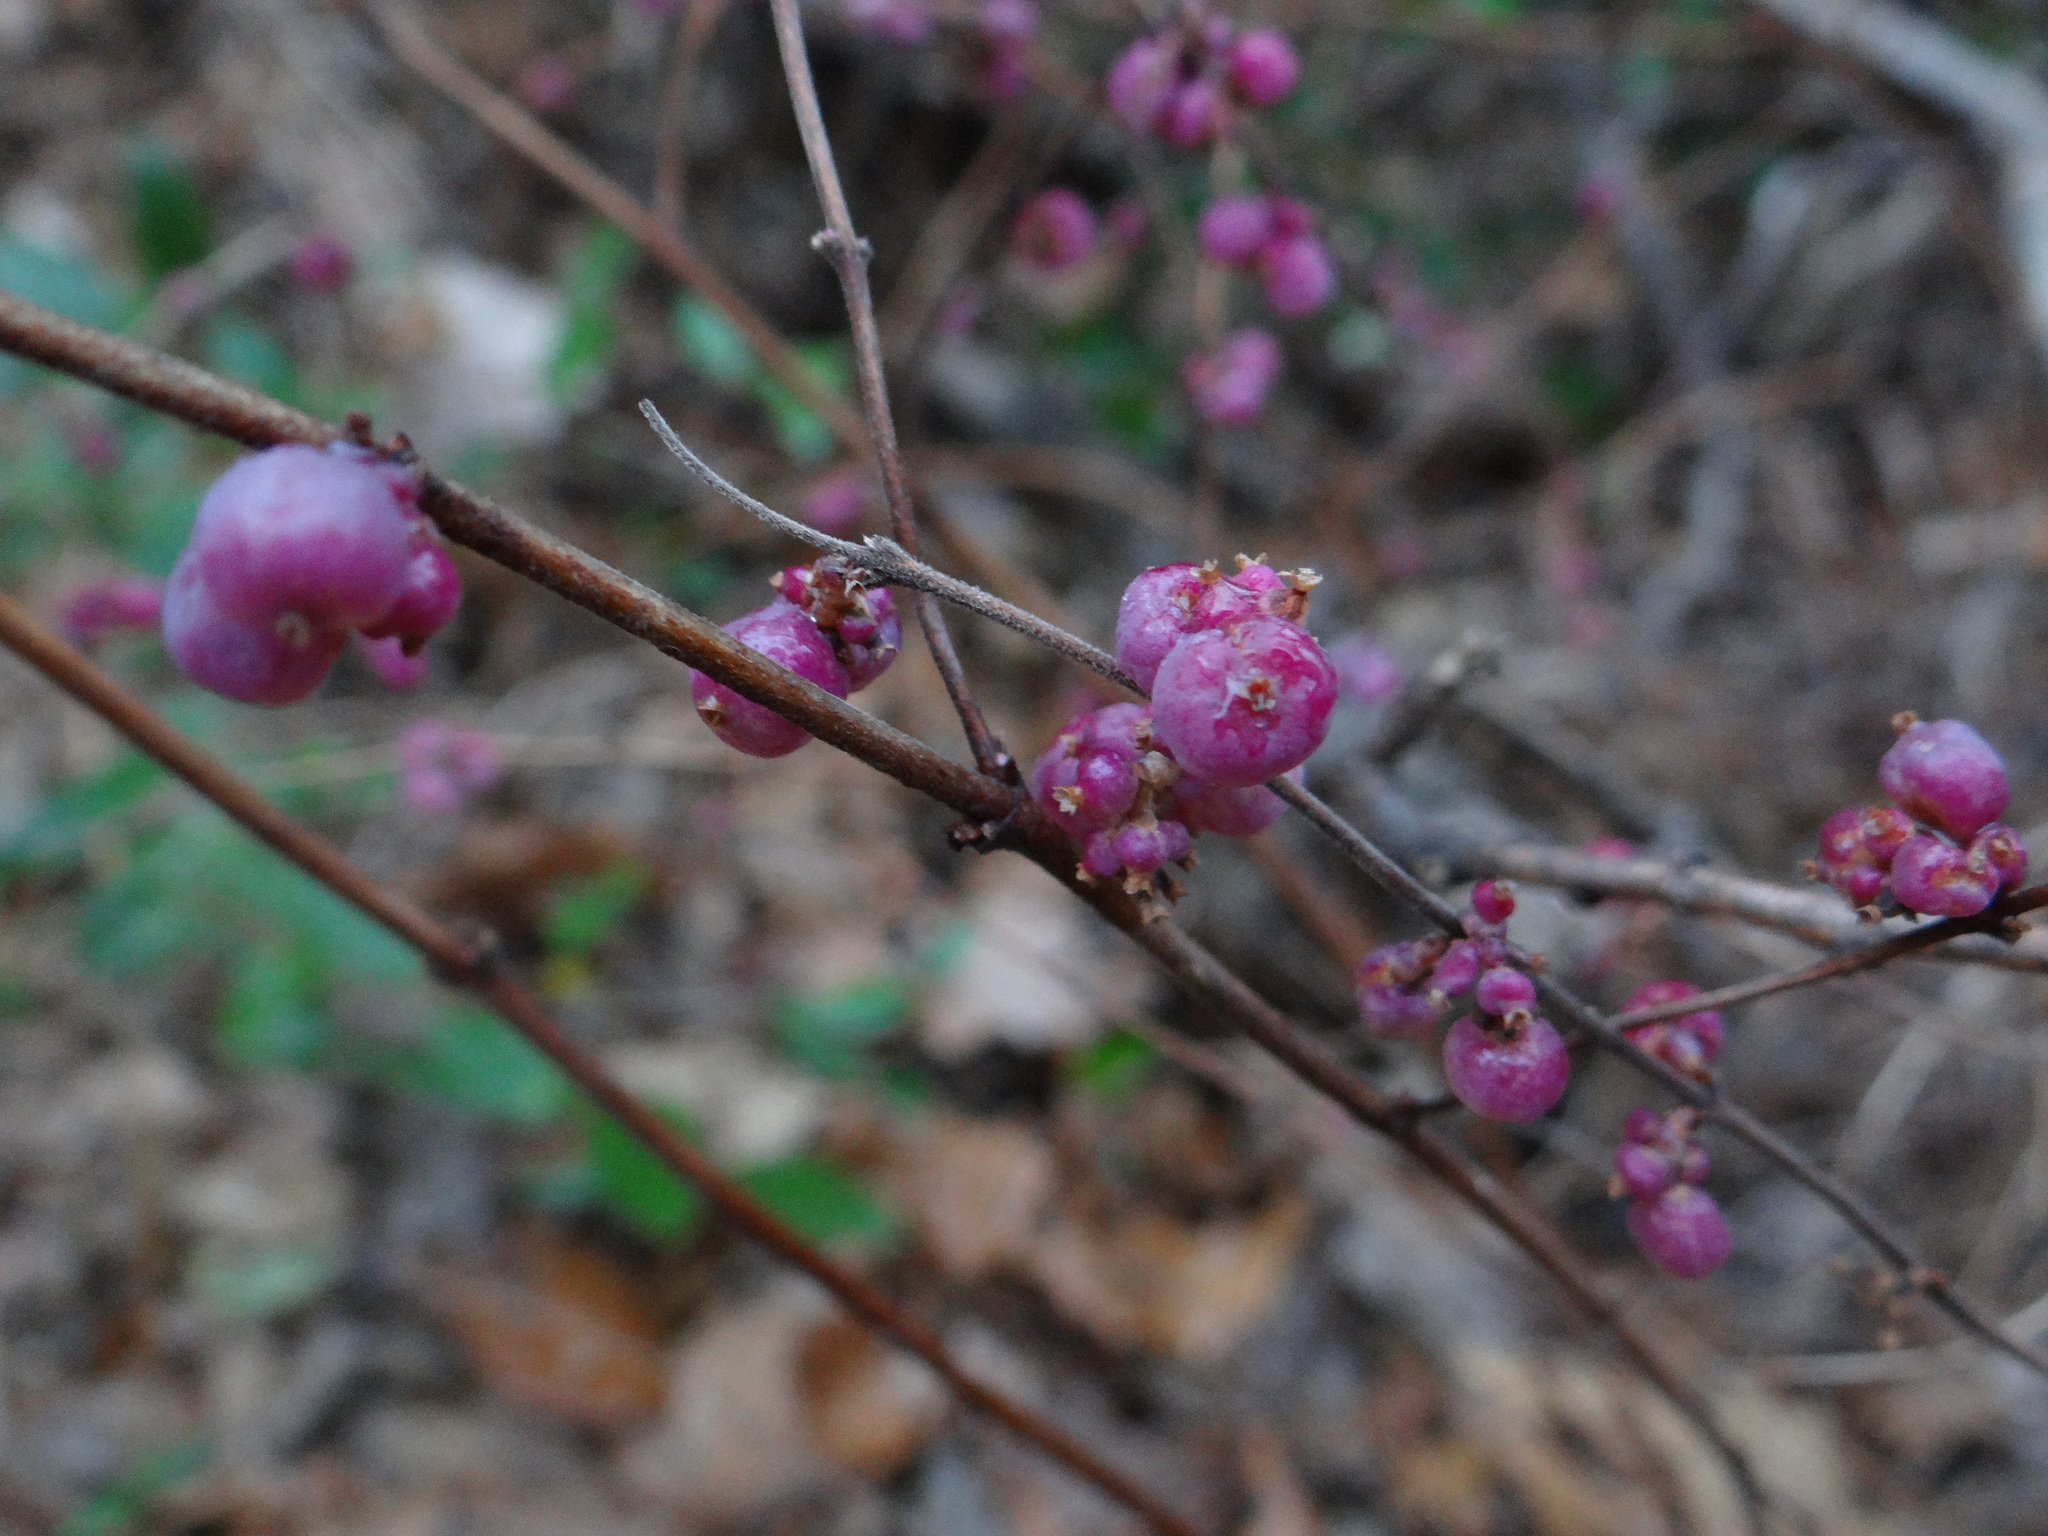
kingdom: Plantae
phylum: Tracheophyta
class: Magnoliopsida
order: Dipsacales
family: Caprifoliaceae
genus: Symphoricarpos
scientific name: Symphoricarpos orbiculatus
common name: Coralberry
